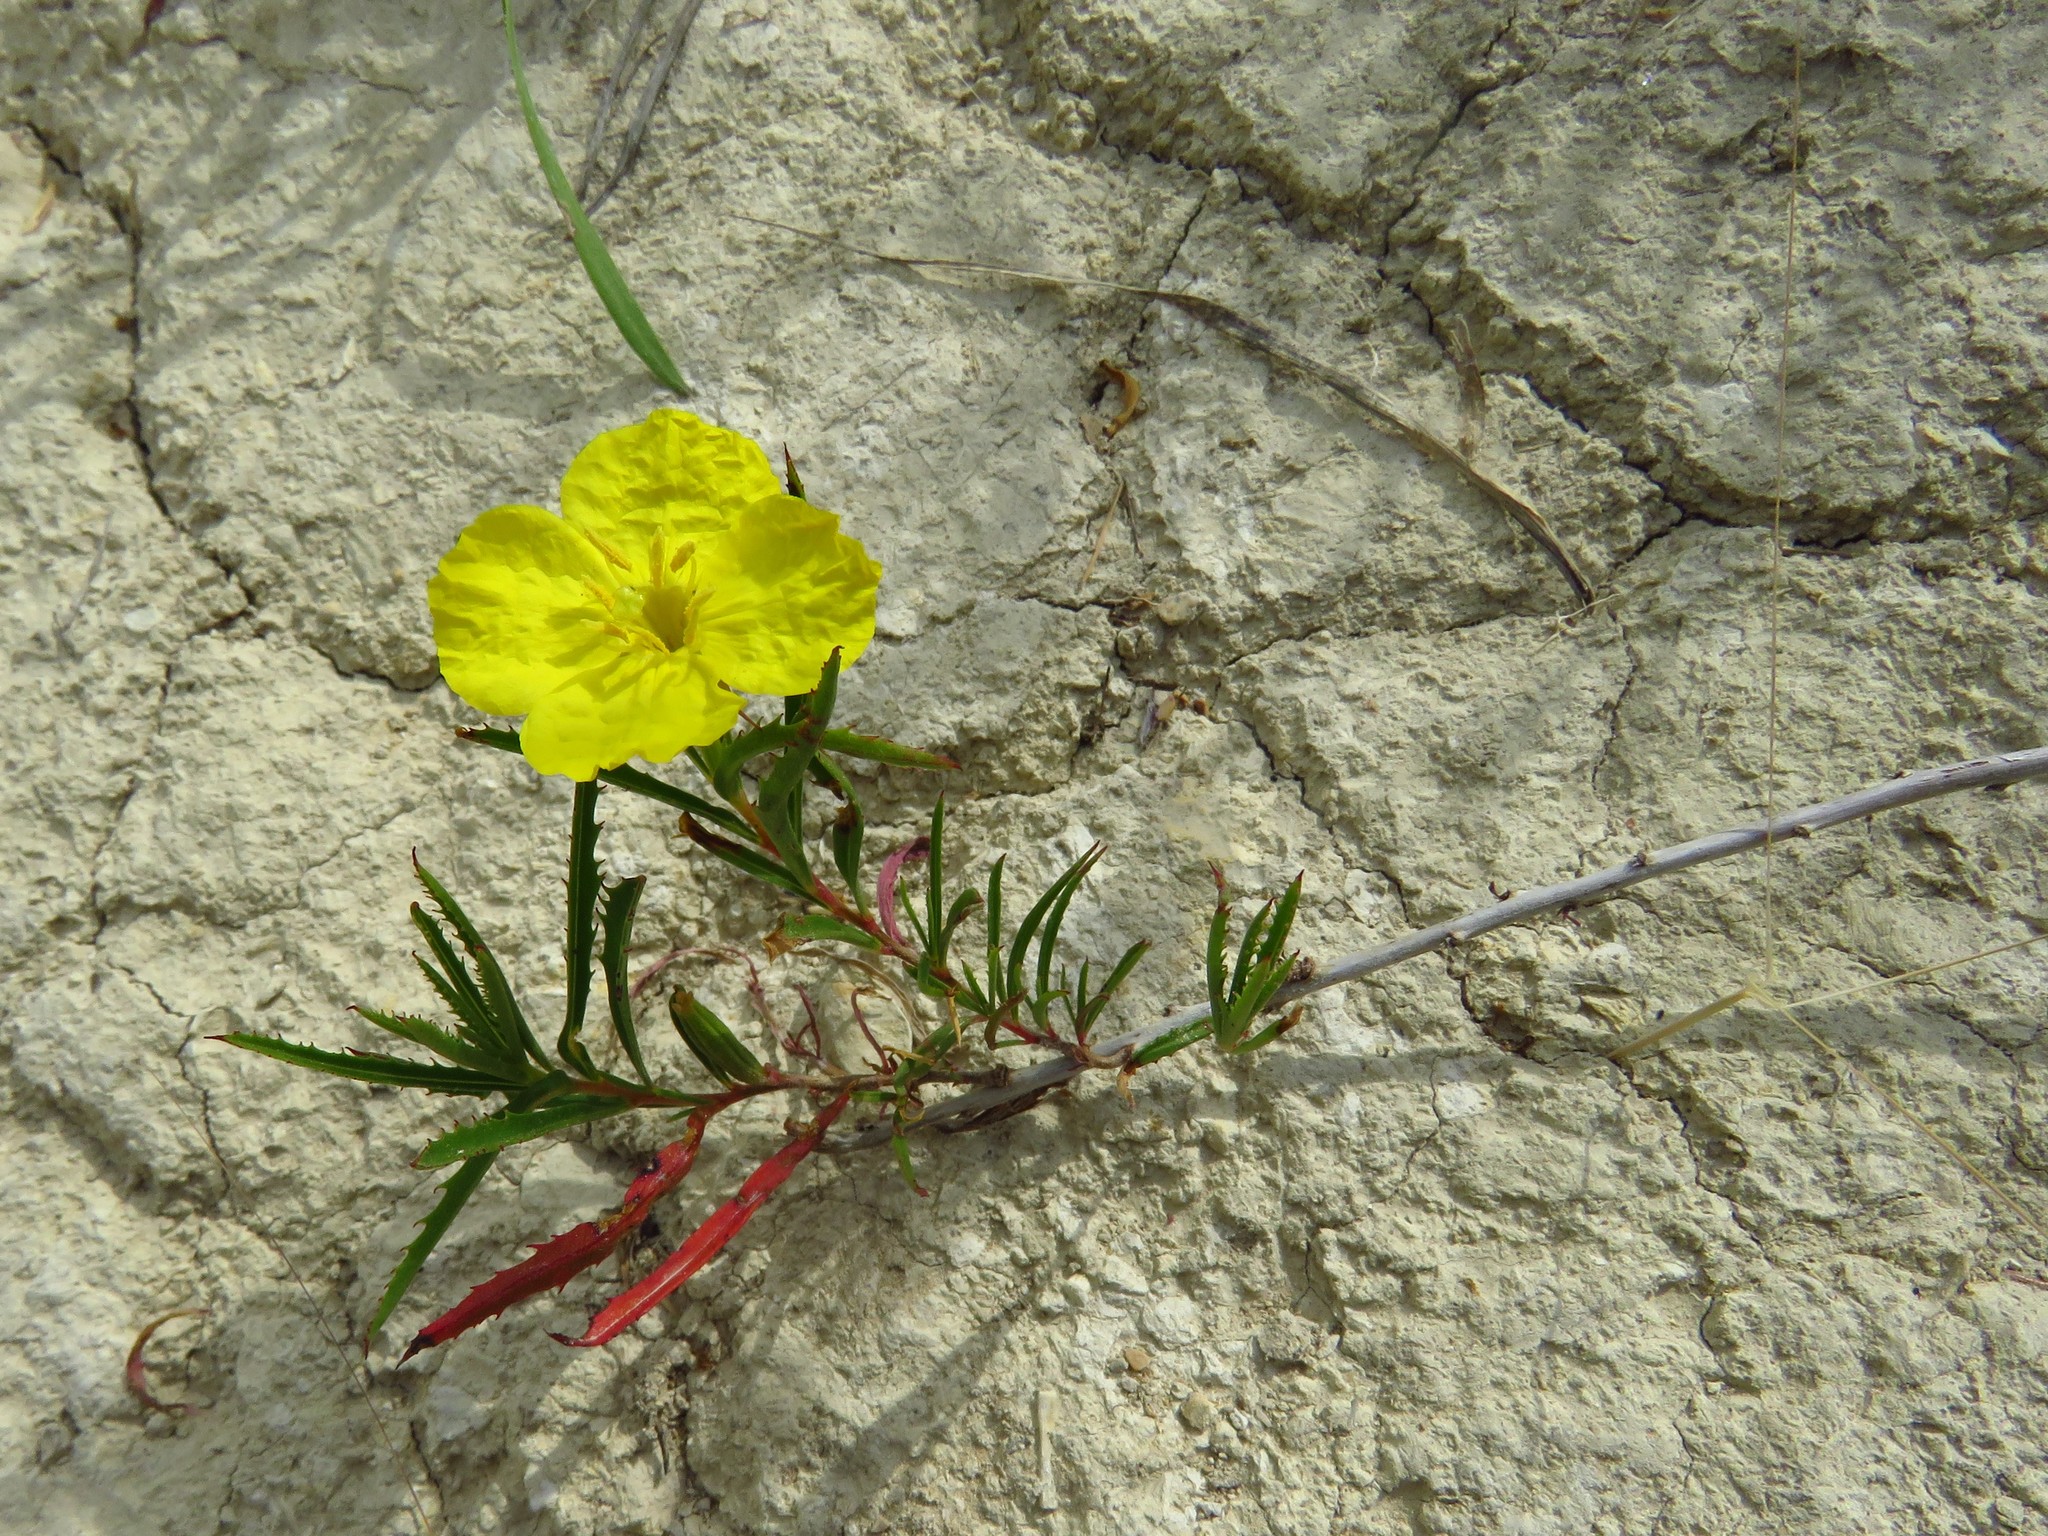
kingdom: Plantae
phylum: Tracheophyta
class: Magnoliopsida
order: Myrtales
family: Onagraceae
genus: Oenothera
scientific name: Oenothera
